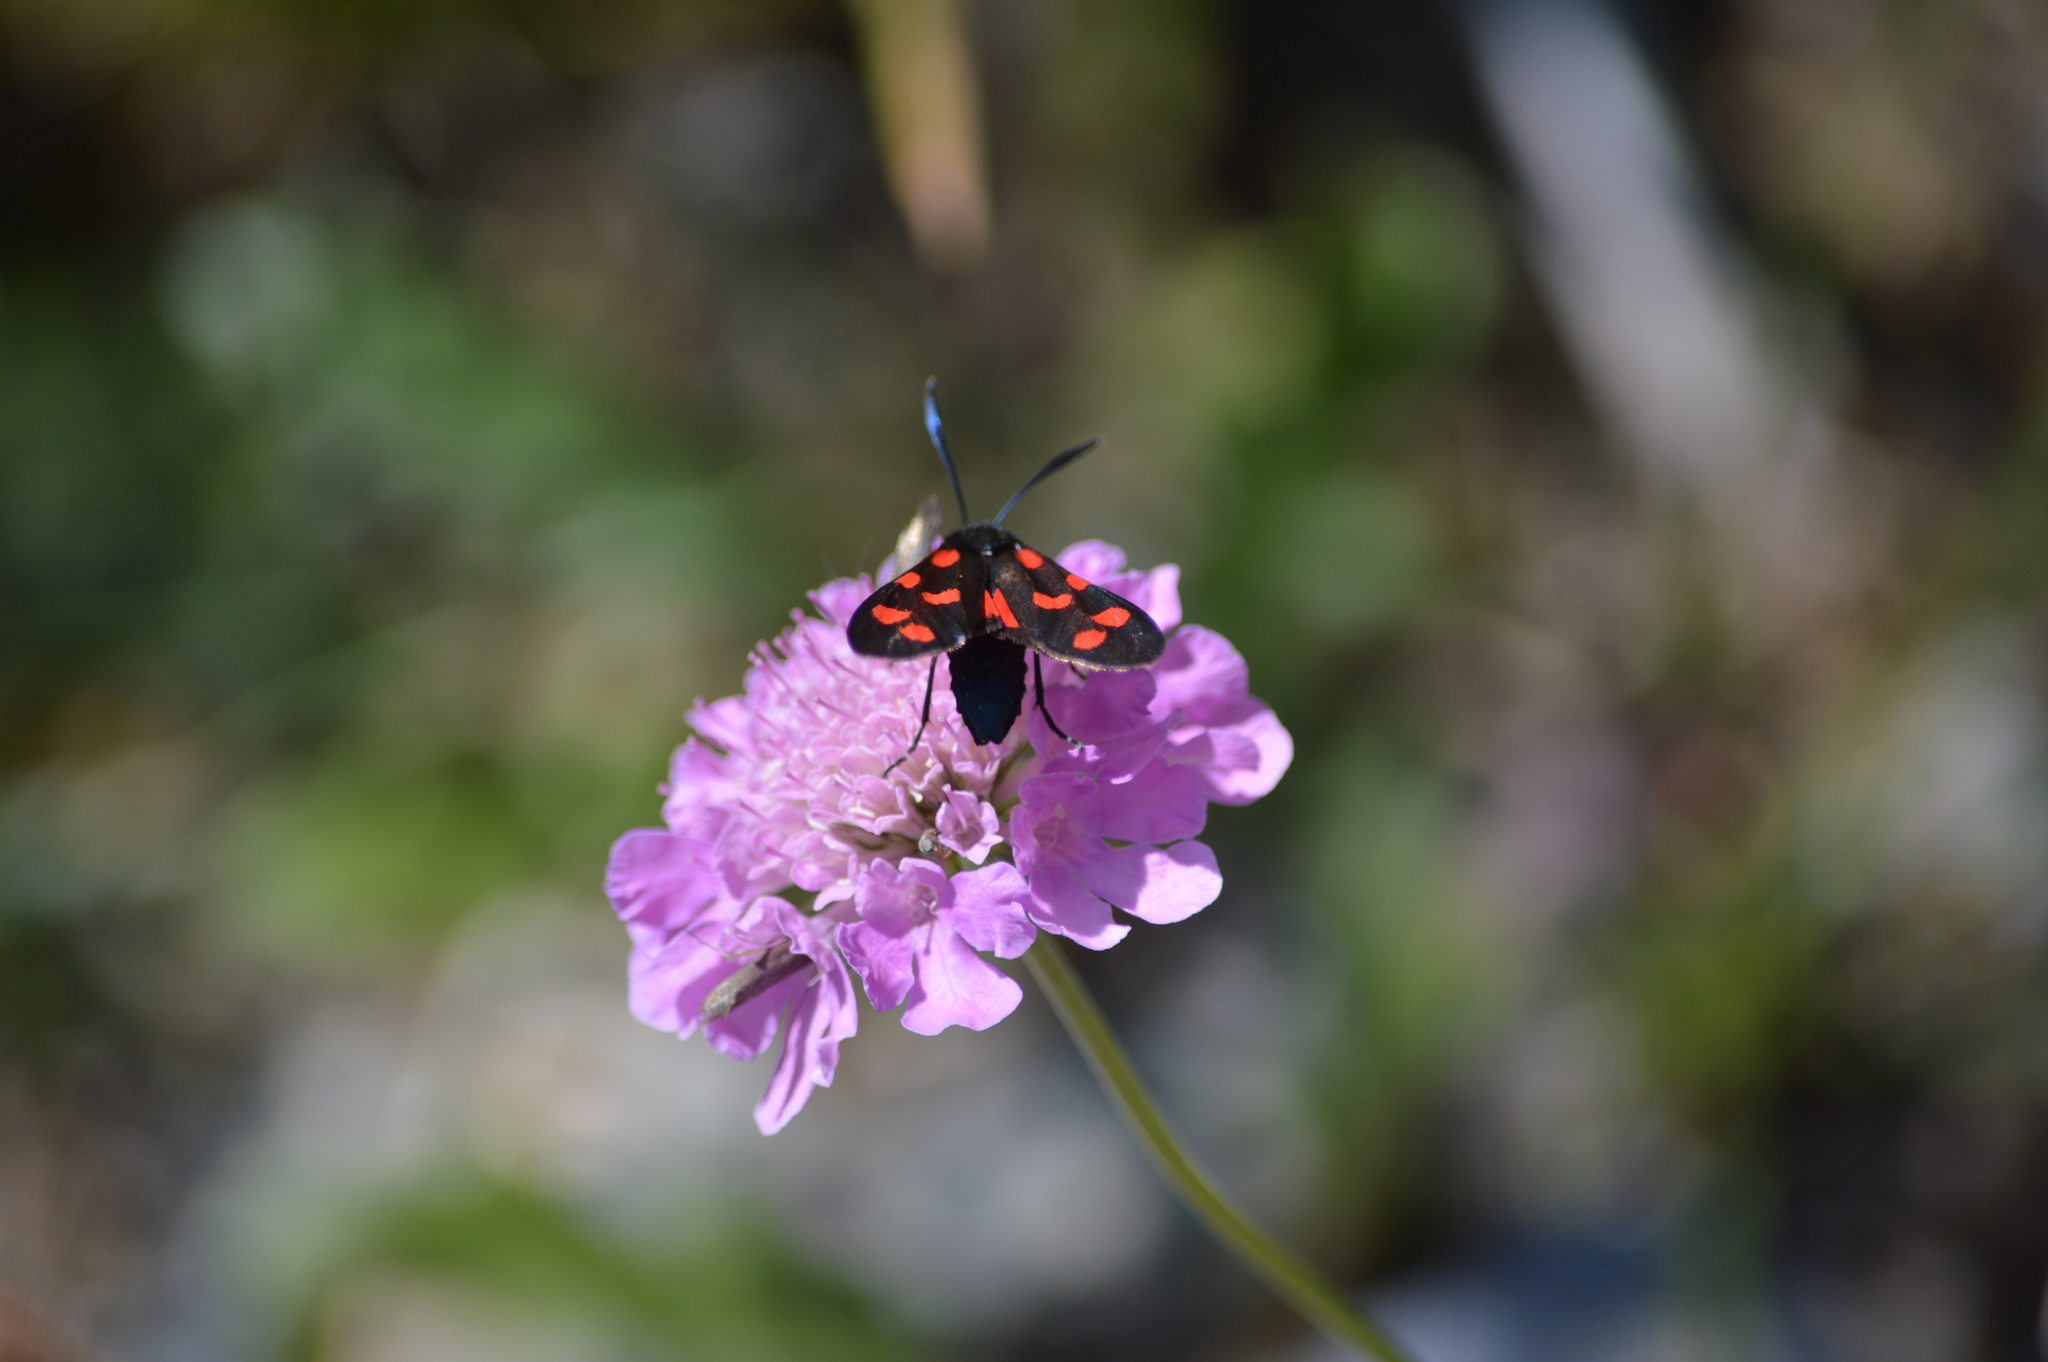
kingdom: Animalia
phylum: Arthropoda
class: Insecta
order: Lepidoptera
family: Zygaenidae
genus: Zygaena
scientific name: Zygaena transalpina
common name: Southern six spot burnet
